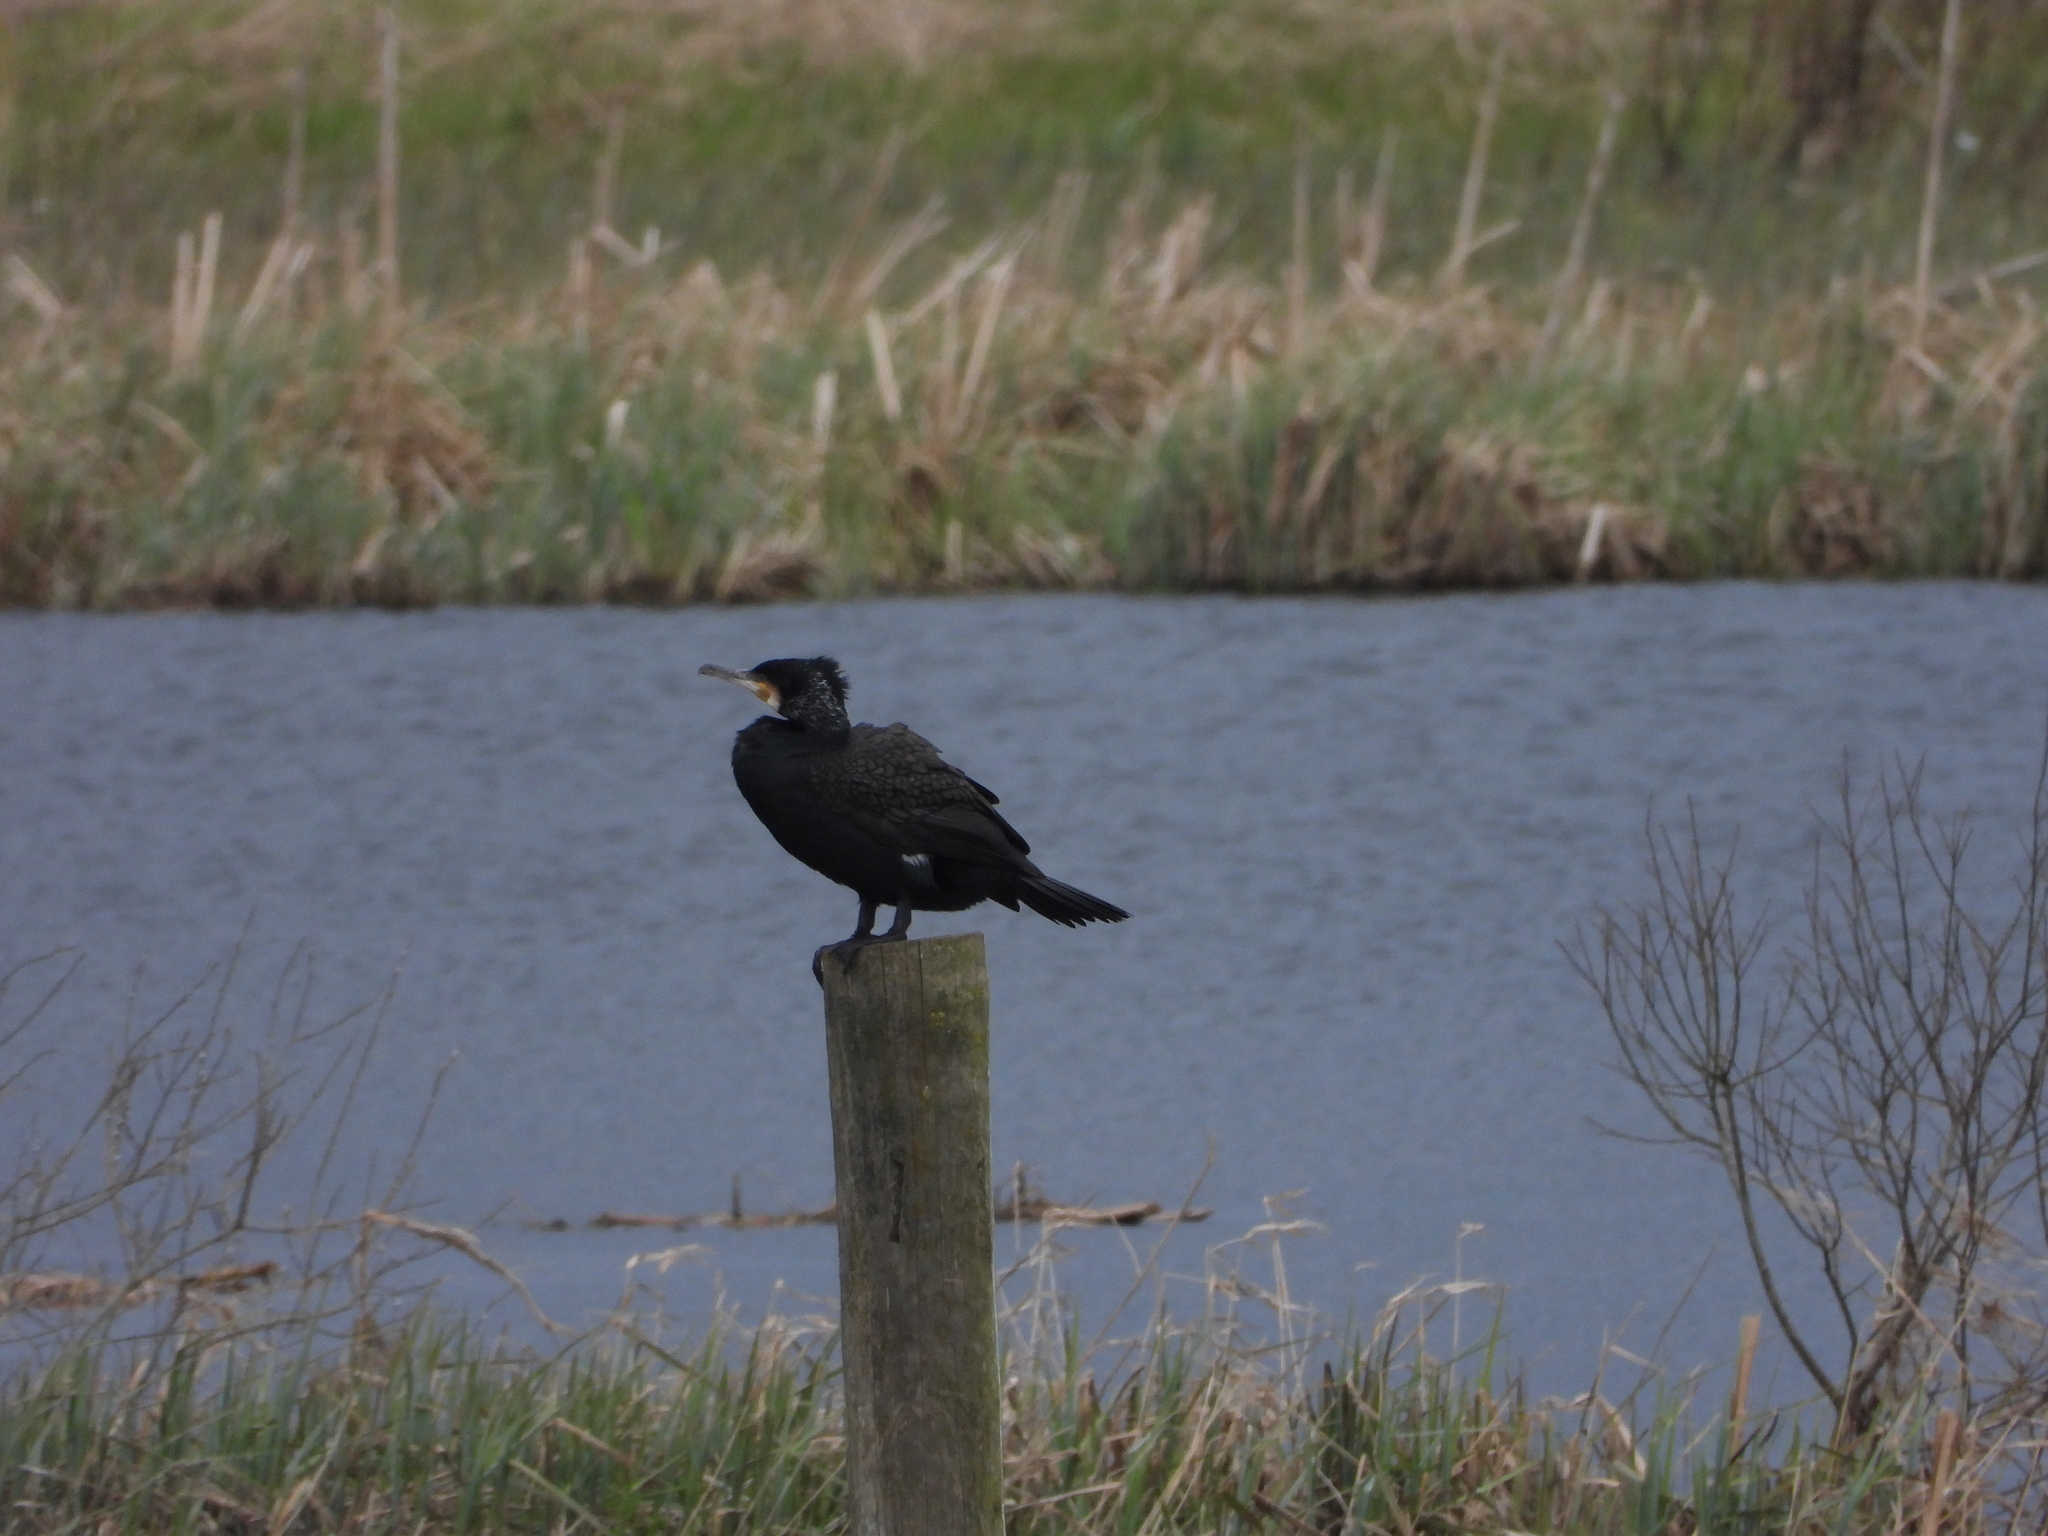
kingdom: Animalia
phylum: Chordata
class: Aves
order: Suliformes
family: Phalacrocoracidae
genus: Phalacrocorax
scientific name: Phalacrocorax carbo
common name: Great cormorant
